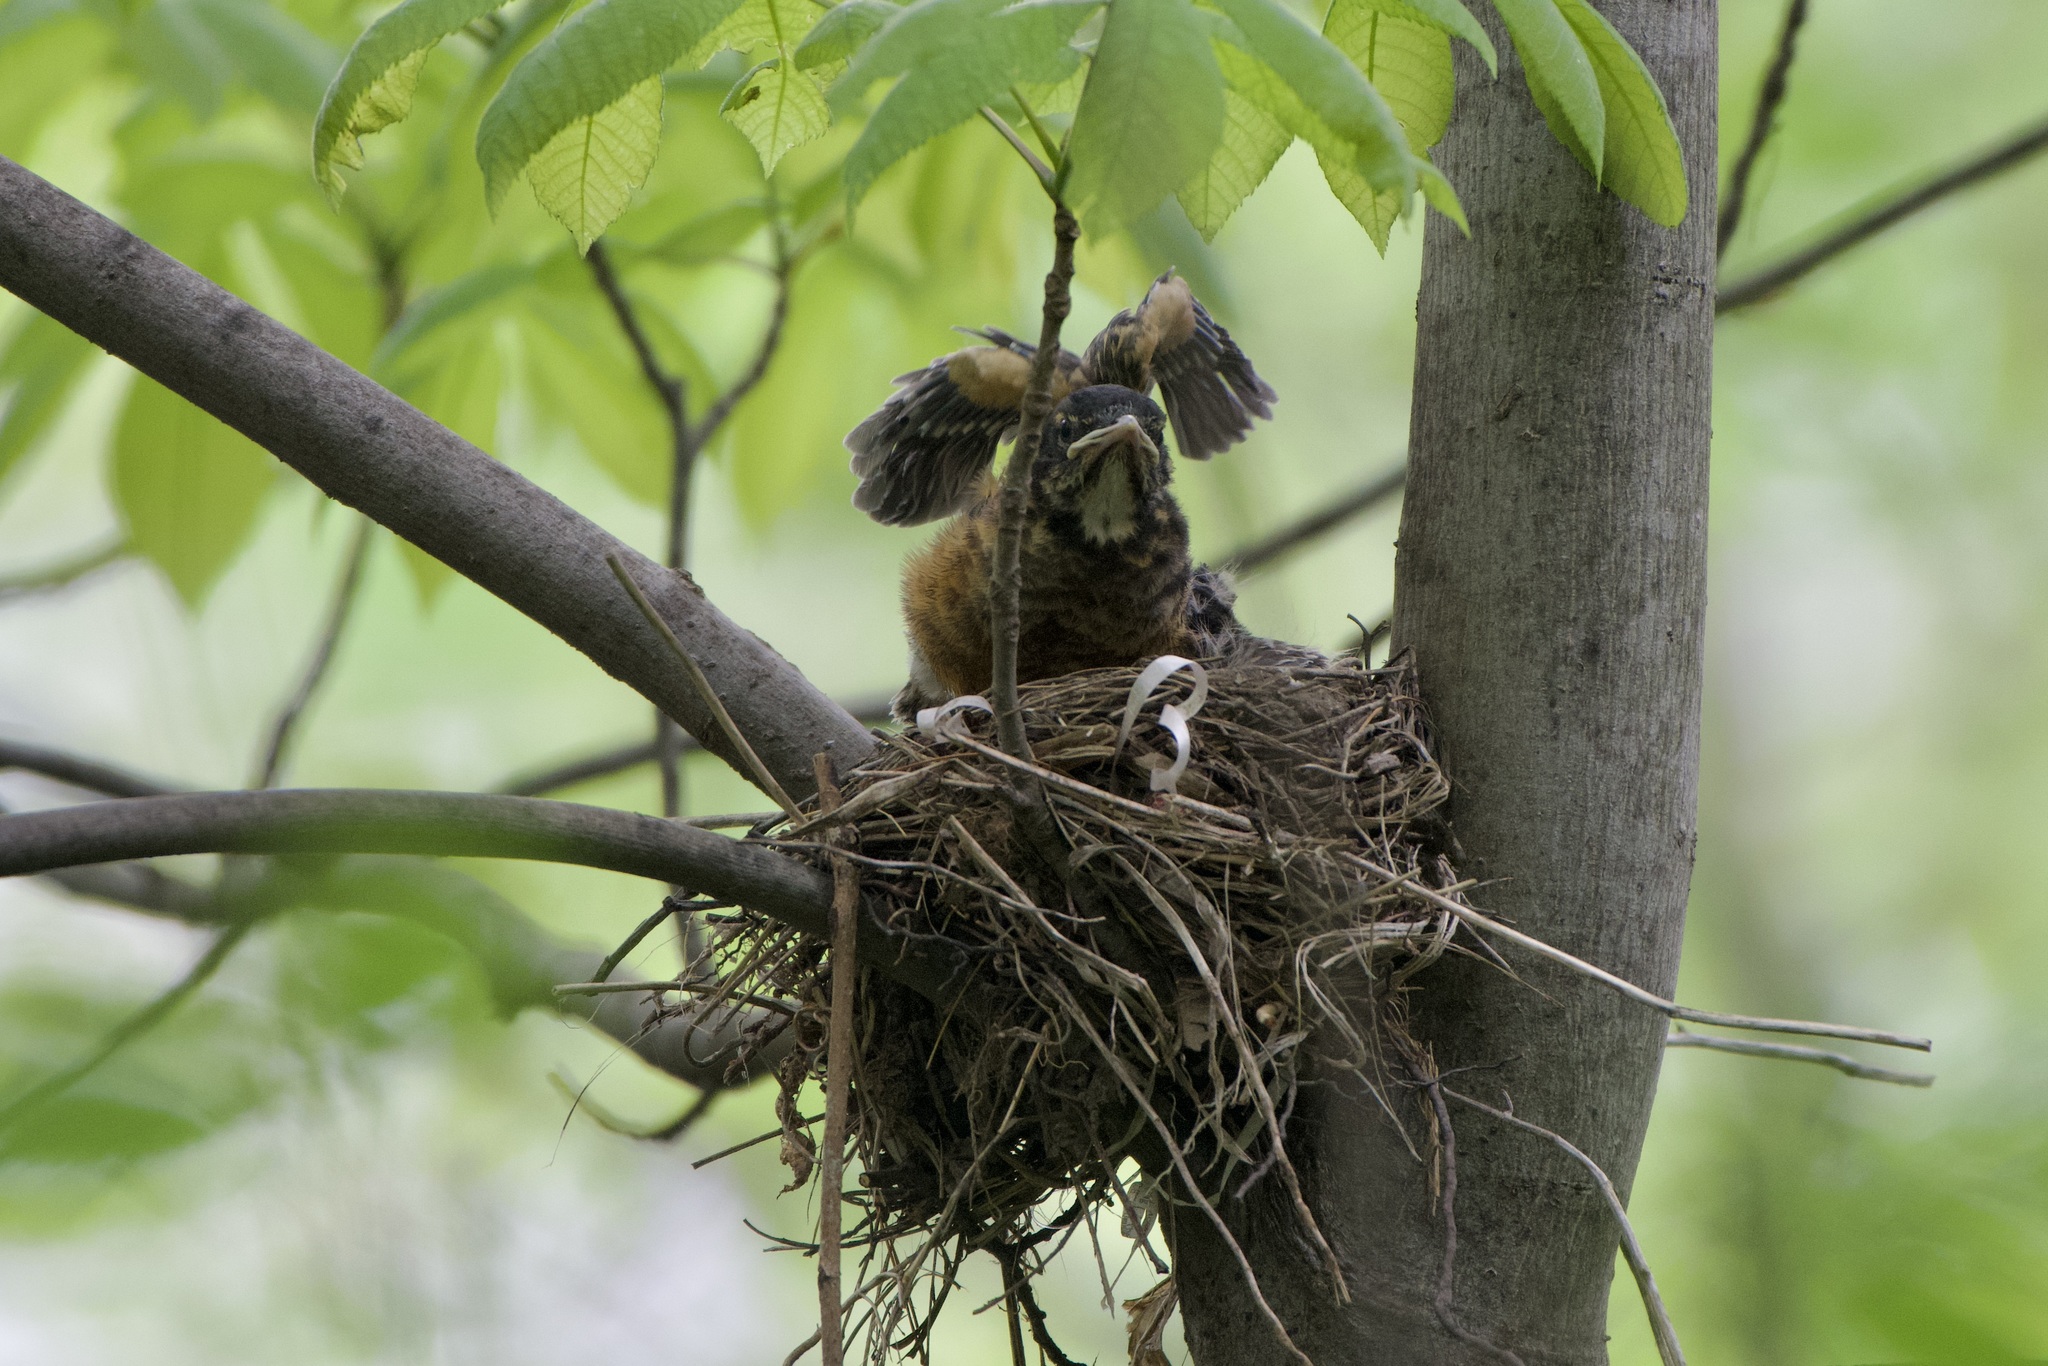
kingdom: Animalia
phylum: Chordata
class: Aves
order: Passeriformes
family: Turdidae
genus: Turdus
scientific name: Turdus migratorius
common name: American robin
